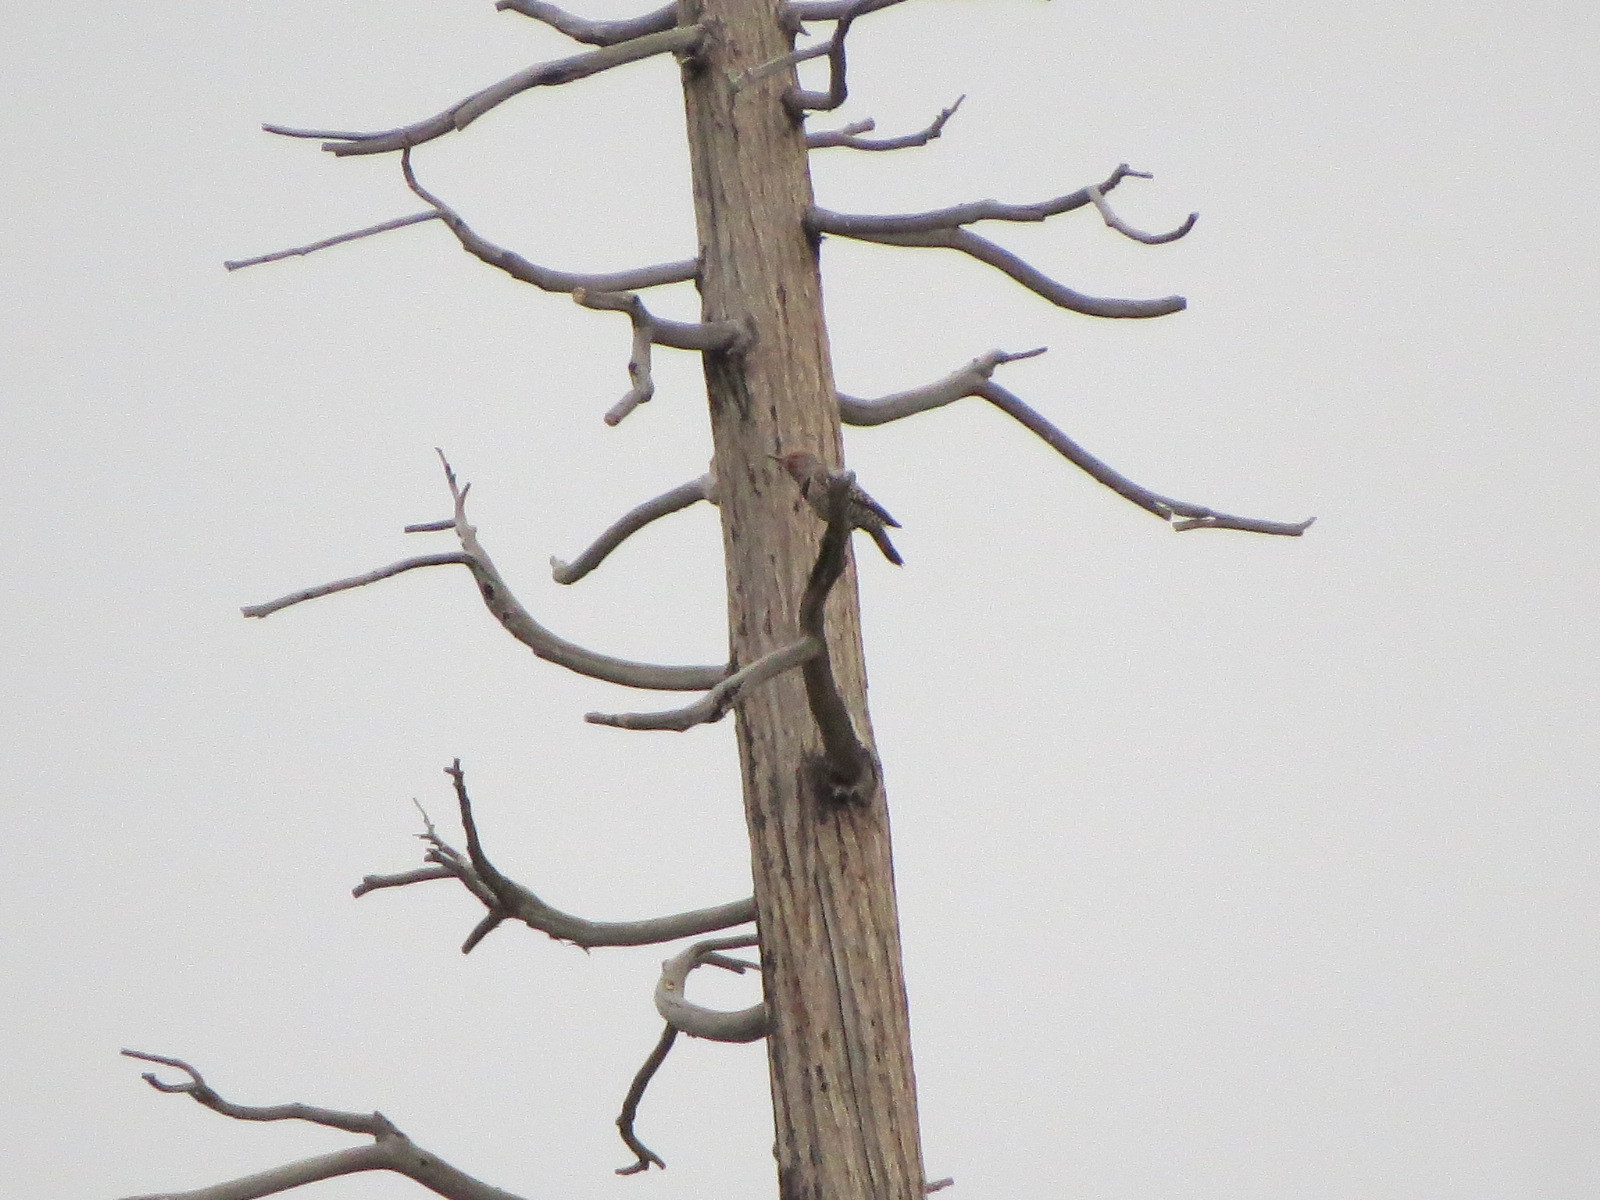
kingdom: Animalia
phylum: Chordata
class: Aves
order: Piciformes
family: Picidae
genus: Colaptes
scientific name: Colaptes auratus
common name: Northern flicker
